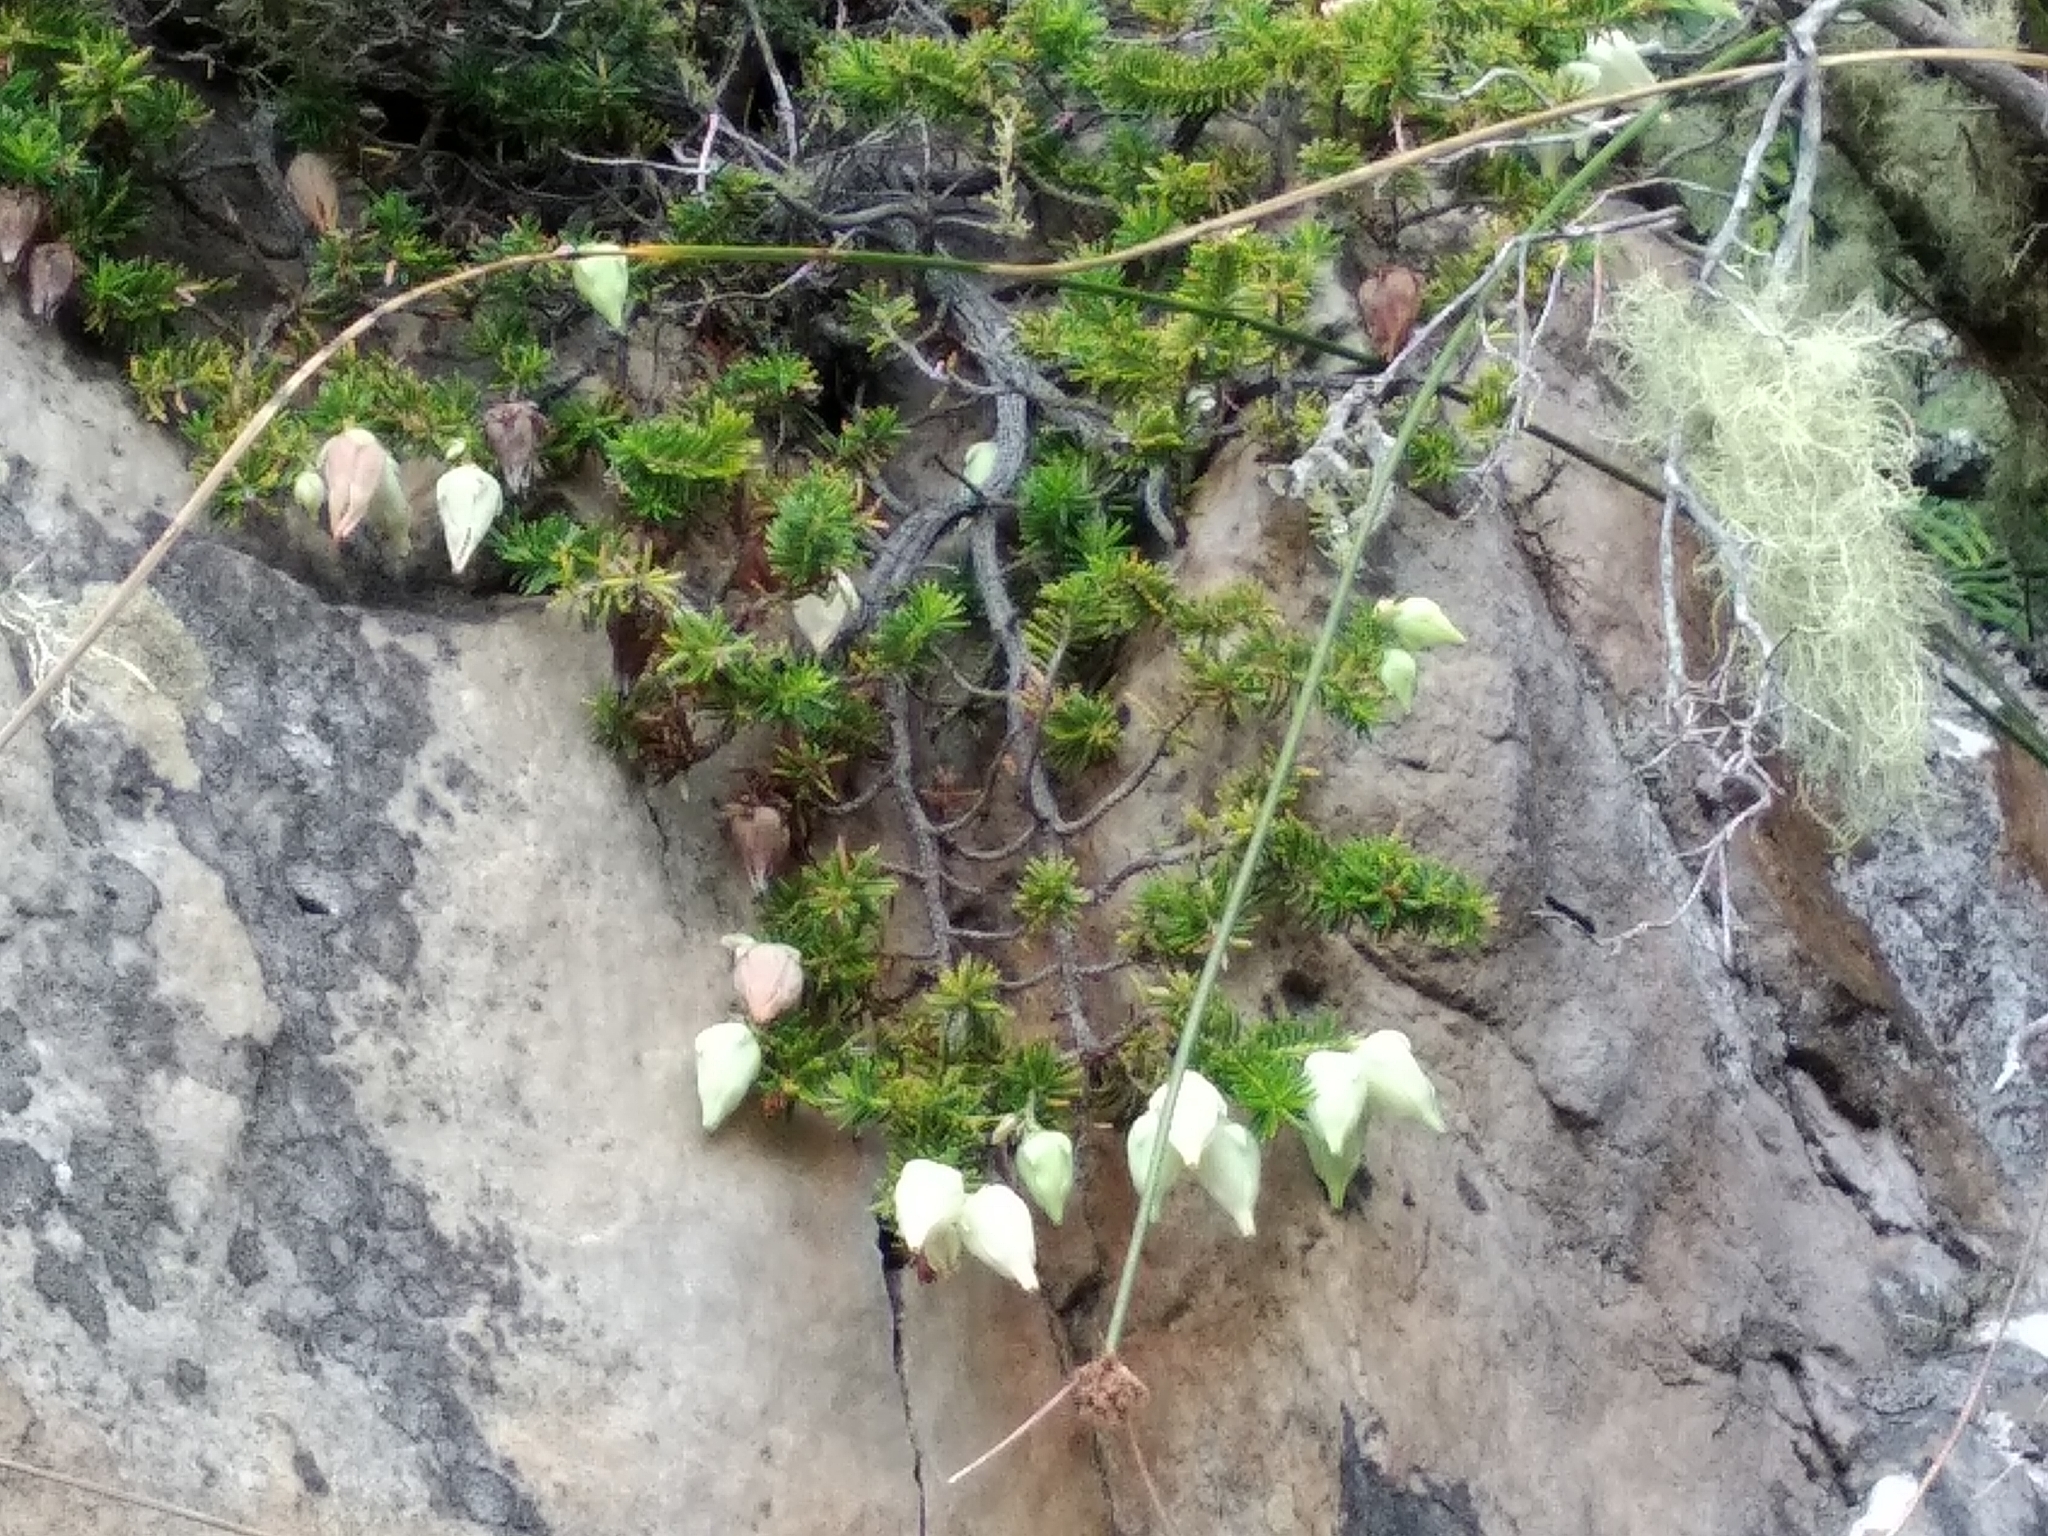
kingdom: Plantae
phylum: Tracheophyta
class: Magnoliopsida
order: Ericales
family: Ericaceae
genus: Erica
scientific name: Erica halicacaba
